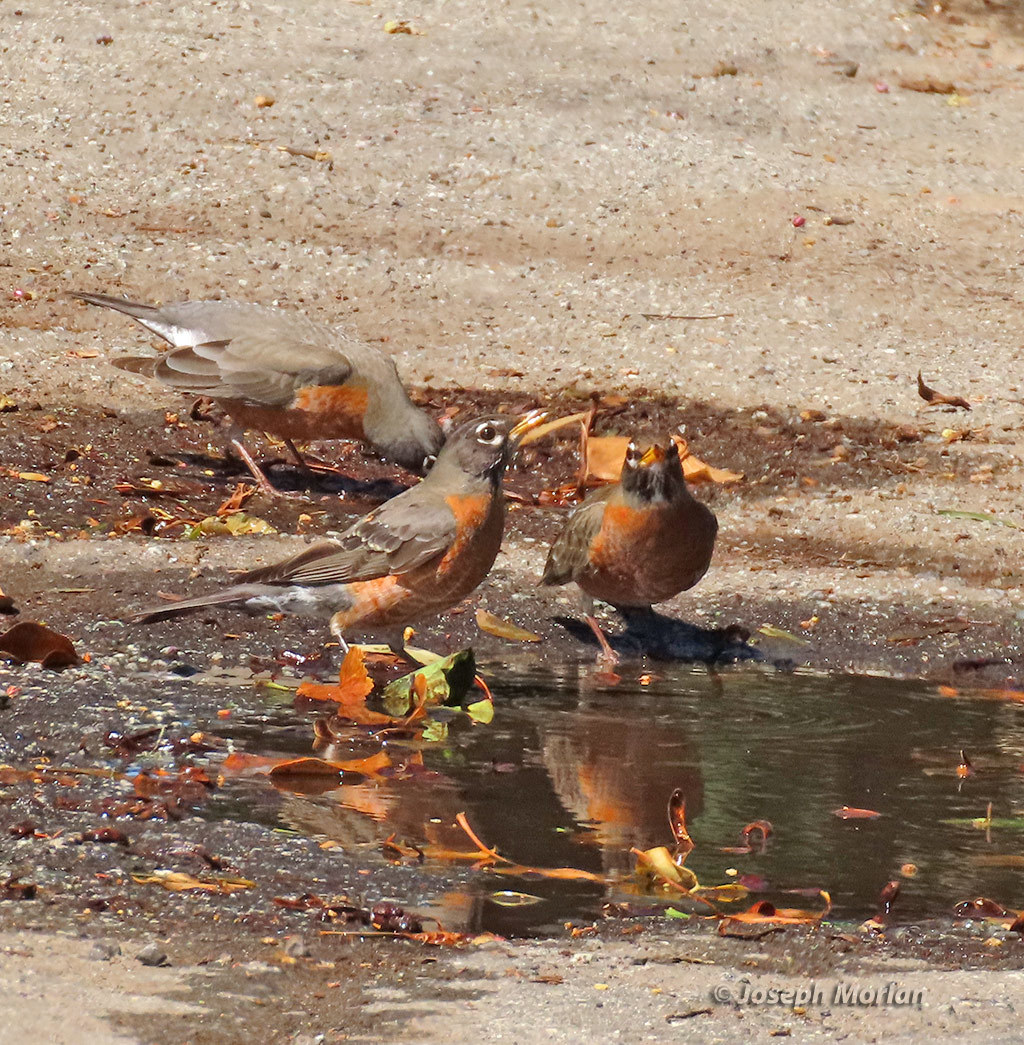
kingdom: Animalia
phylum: Chordata
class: Aves
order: Passeriformes
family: Turdidae
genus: Turdus
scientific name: Turdus migratorius
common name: American robin
